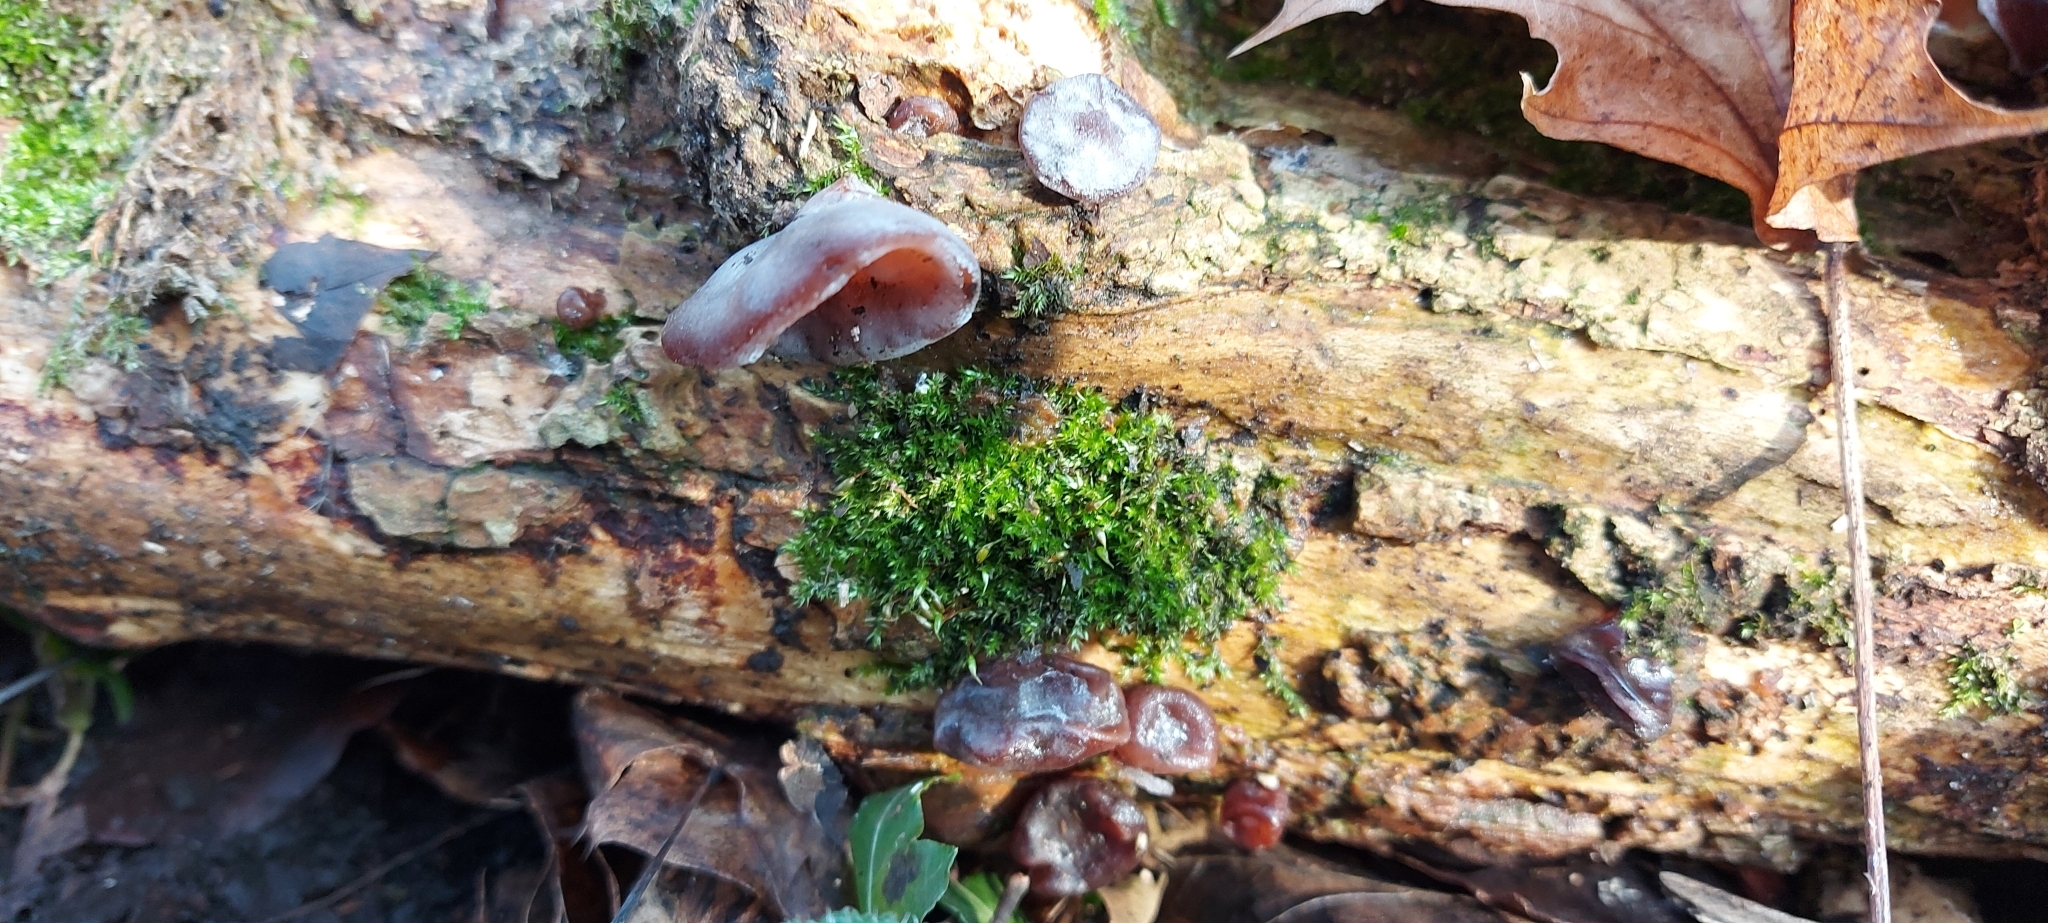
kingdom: Fungi
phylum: Basidiomycota
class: Agaricomycetes
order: Auriculariales
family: Auriculariaceae
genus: Auricularia
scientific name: Auricularia auricula-judae
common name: Jelly ear
